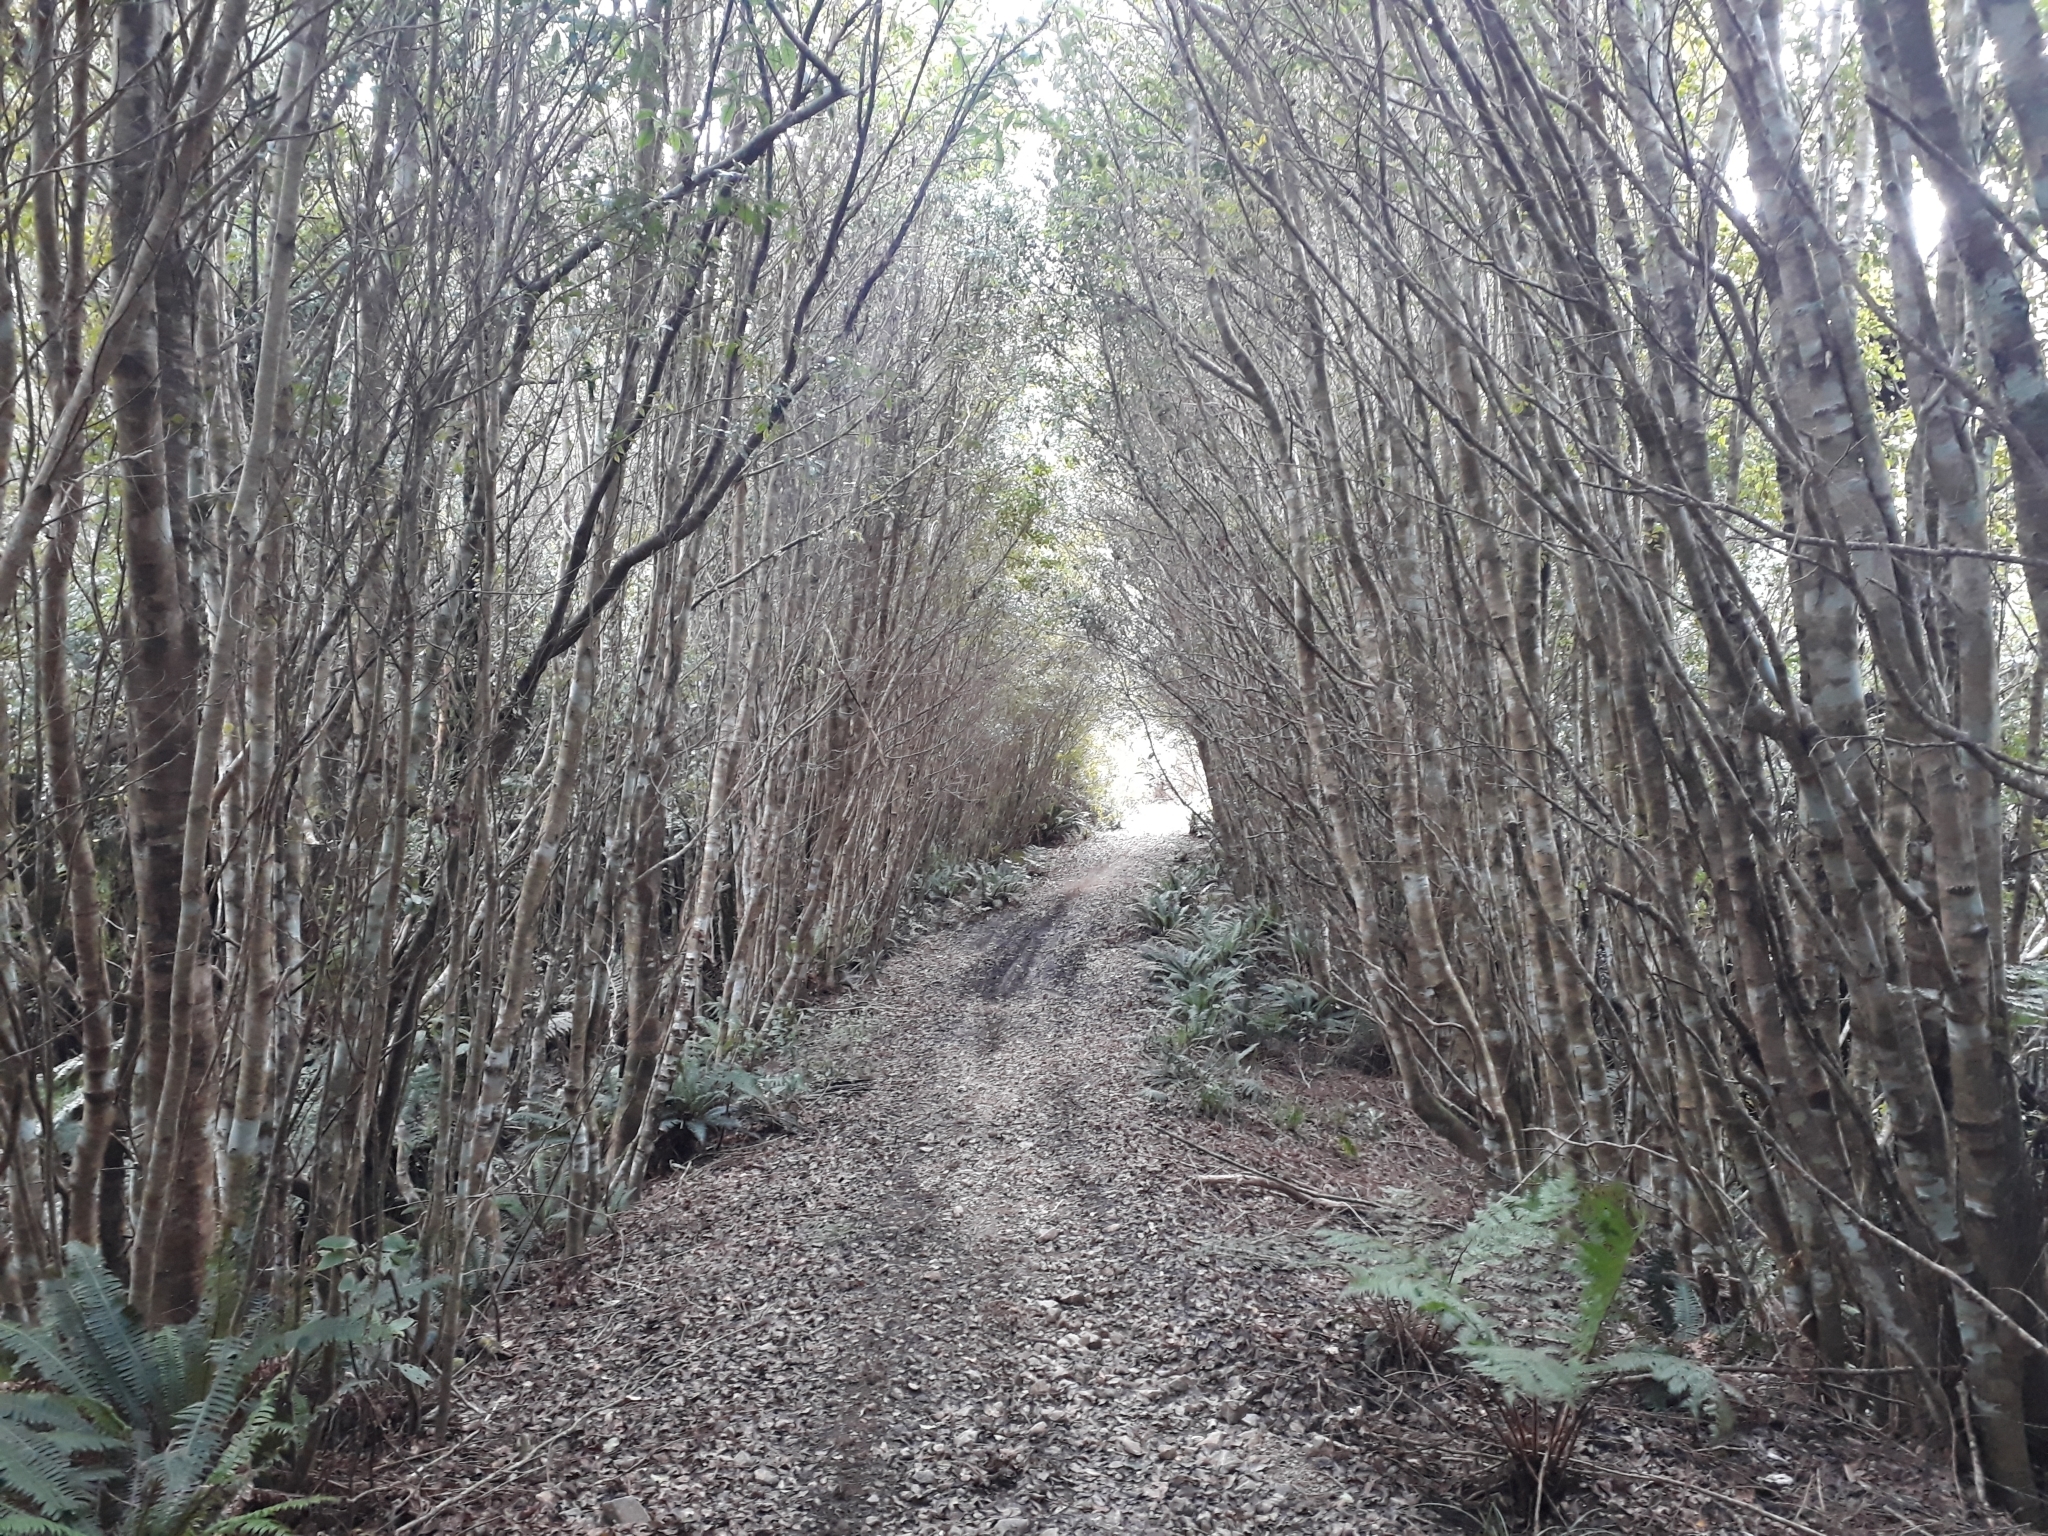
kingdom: Plantae
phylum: Tracheophyta
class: Magnoliopsida
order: Oxalidales
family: Cunoniaceae
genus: Pterophylla
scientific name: Pterophylla racemosa
